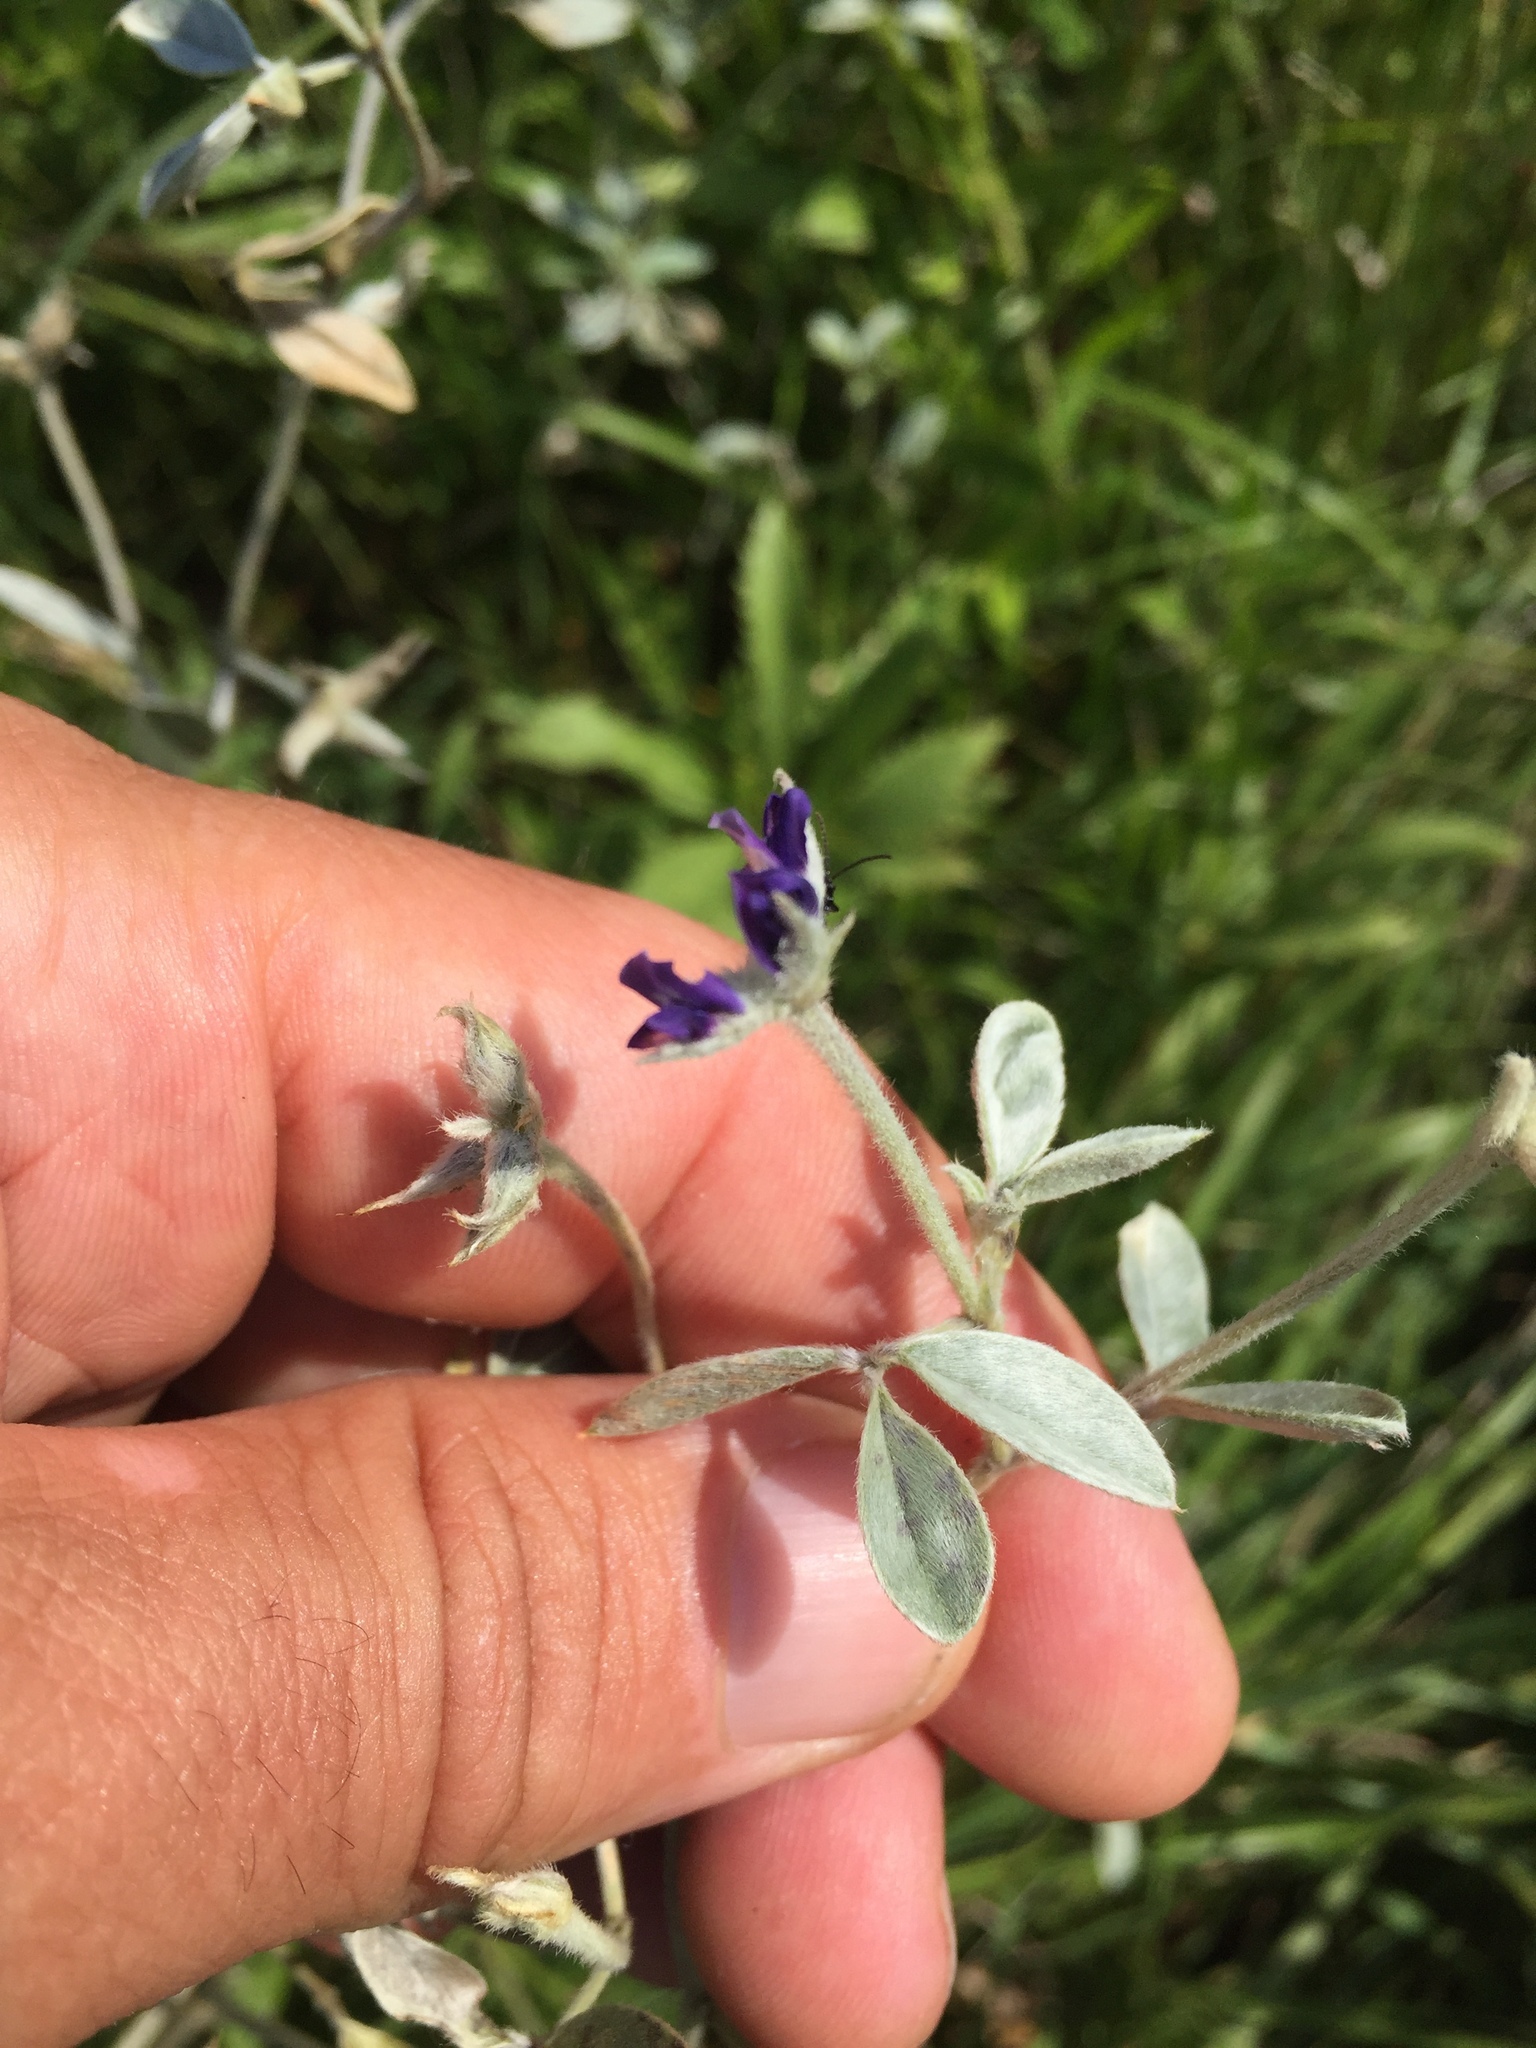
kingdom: Plantae
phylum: Tracheophyta
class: Magnoliopsida
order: Fabales
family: Fabaceae
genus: Pediomelum
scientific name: Pediomelum argophyllum
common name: Silver-leaved indian breadroot
